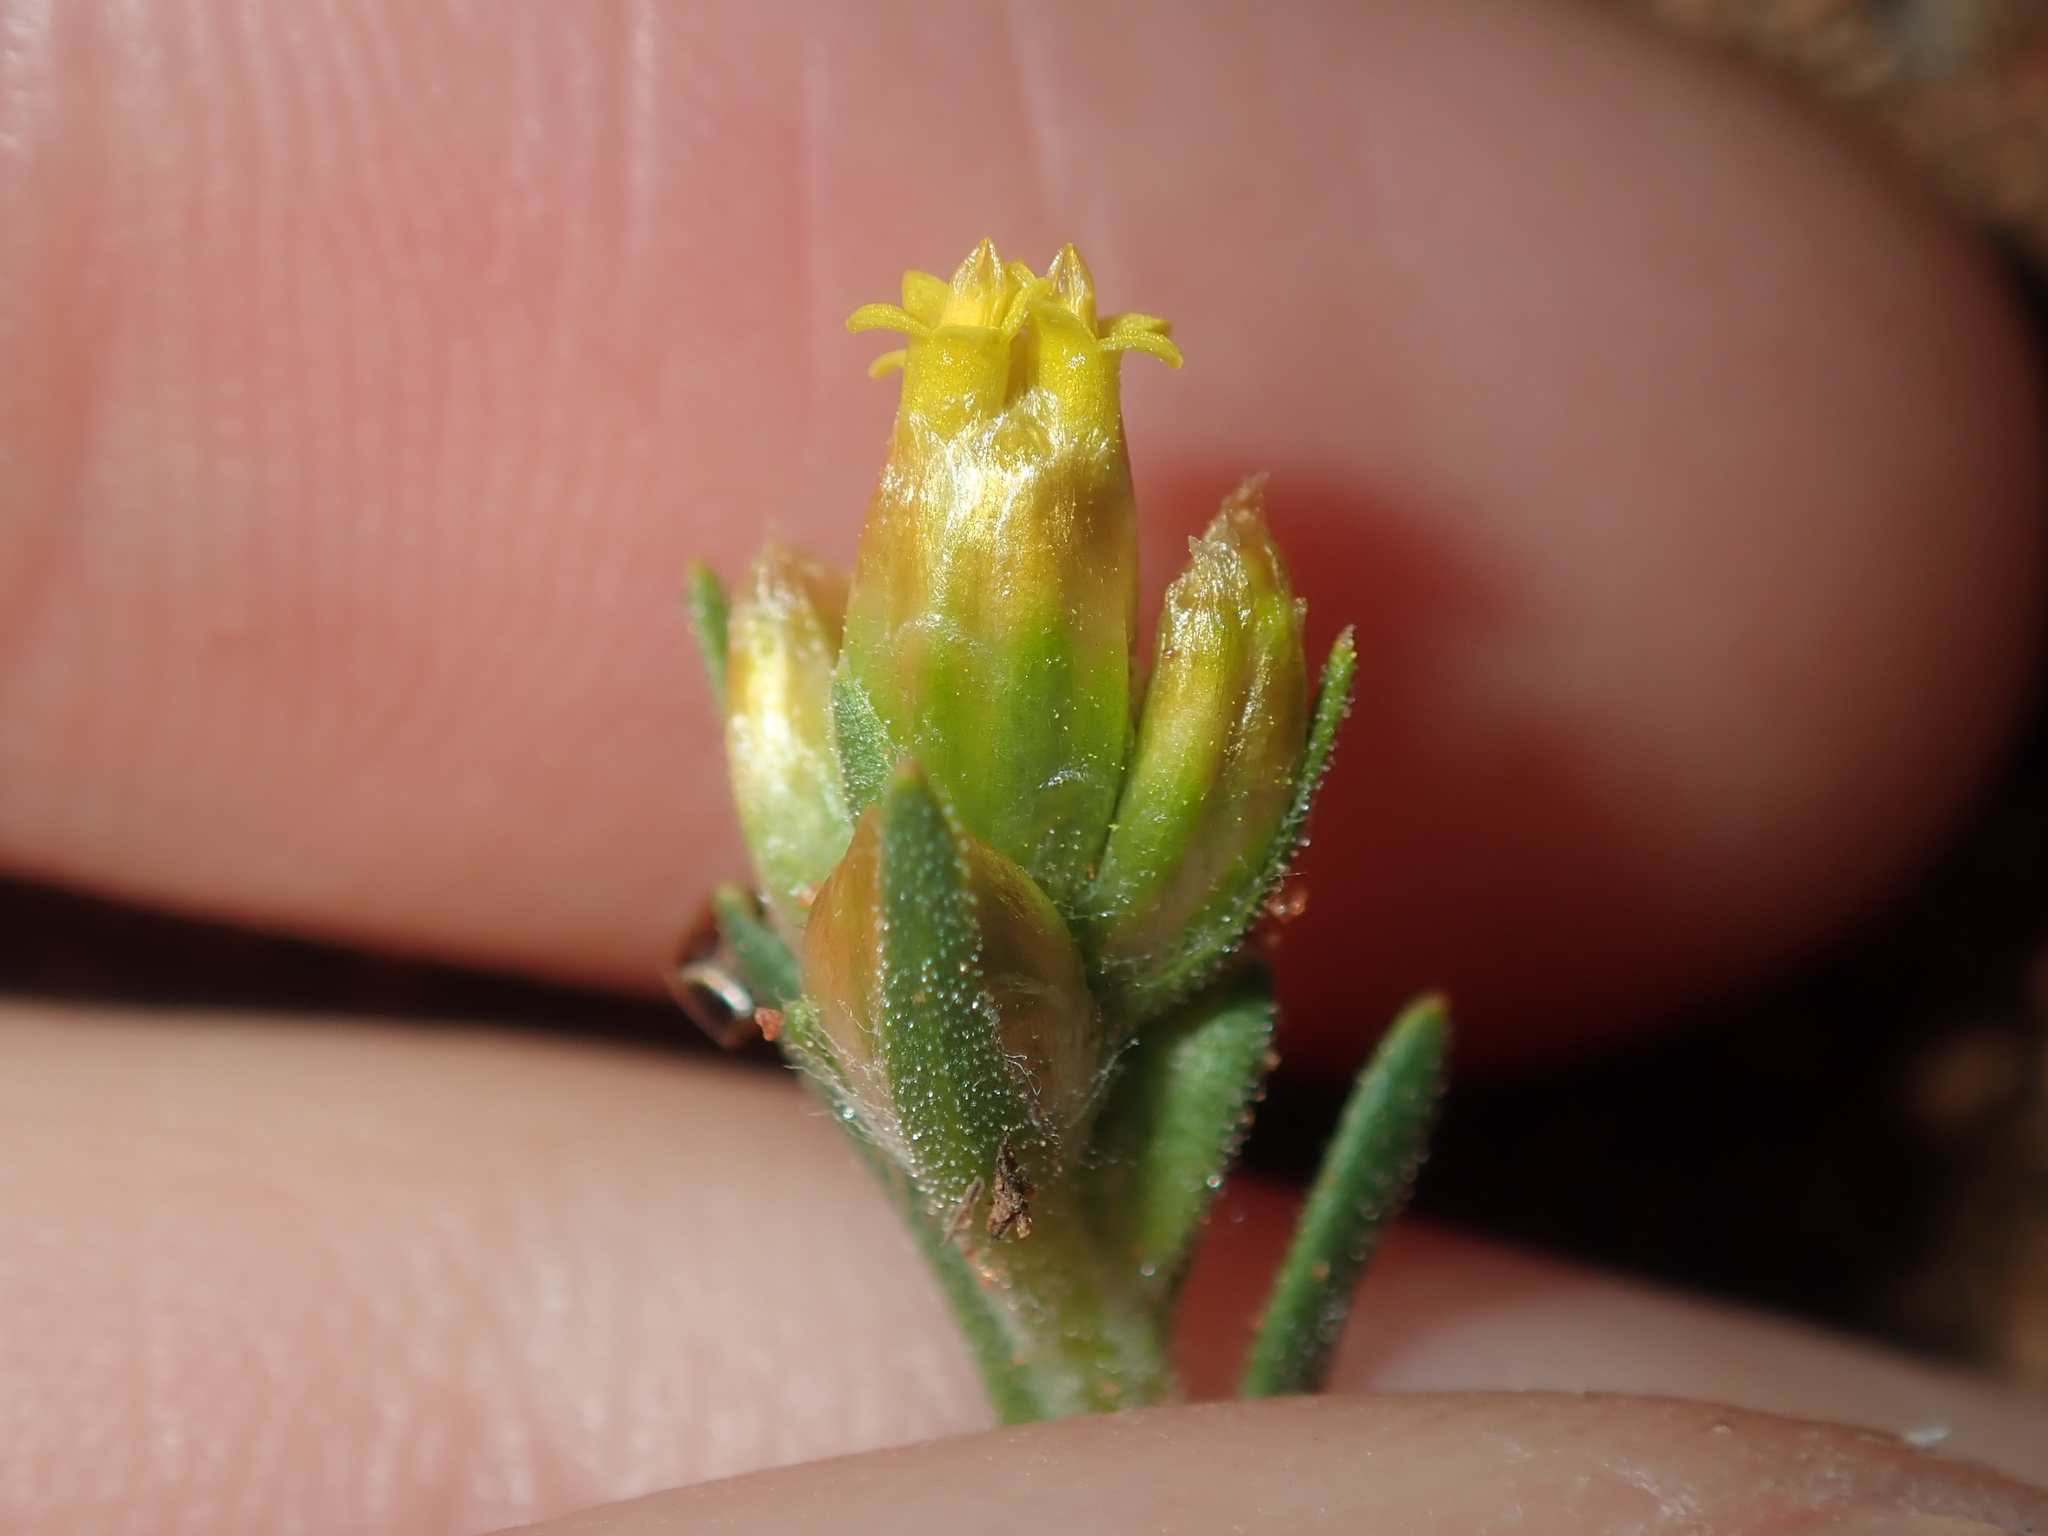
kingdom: Plantae
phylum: Tracheophyta
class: Magnoliopsida
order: Asterales
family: Asteraceae
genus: Rhodanthe
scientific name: Rhodanthe charsleyae
